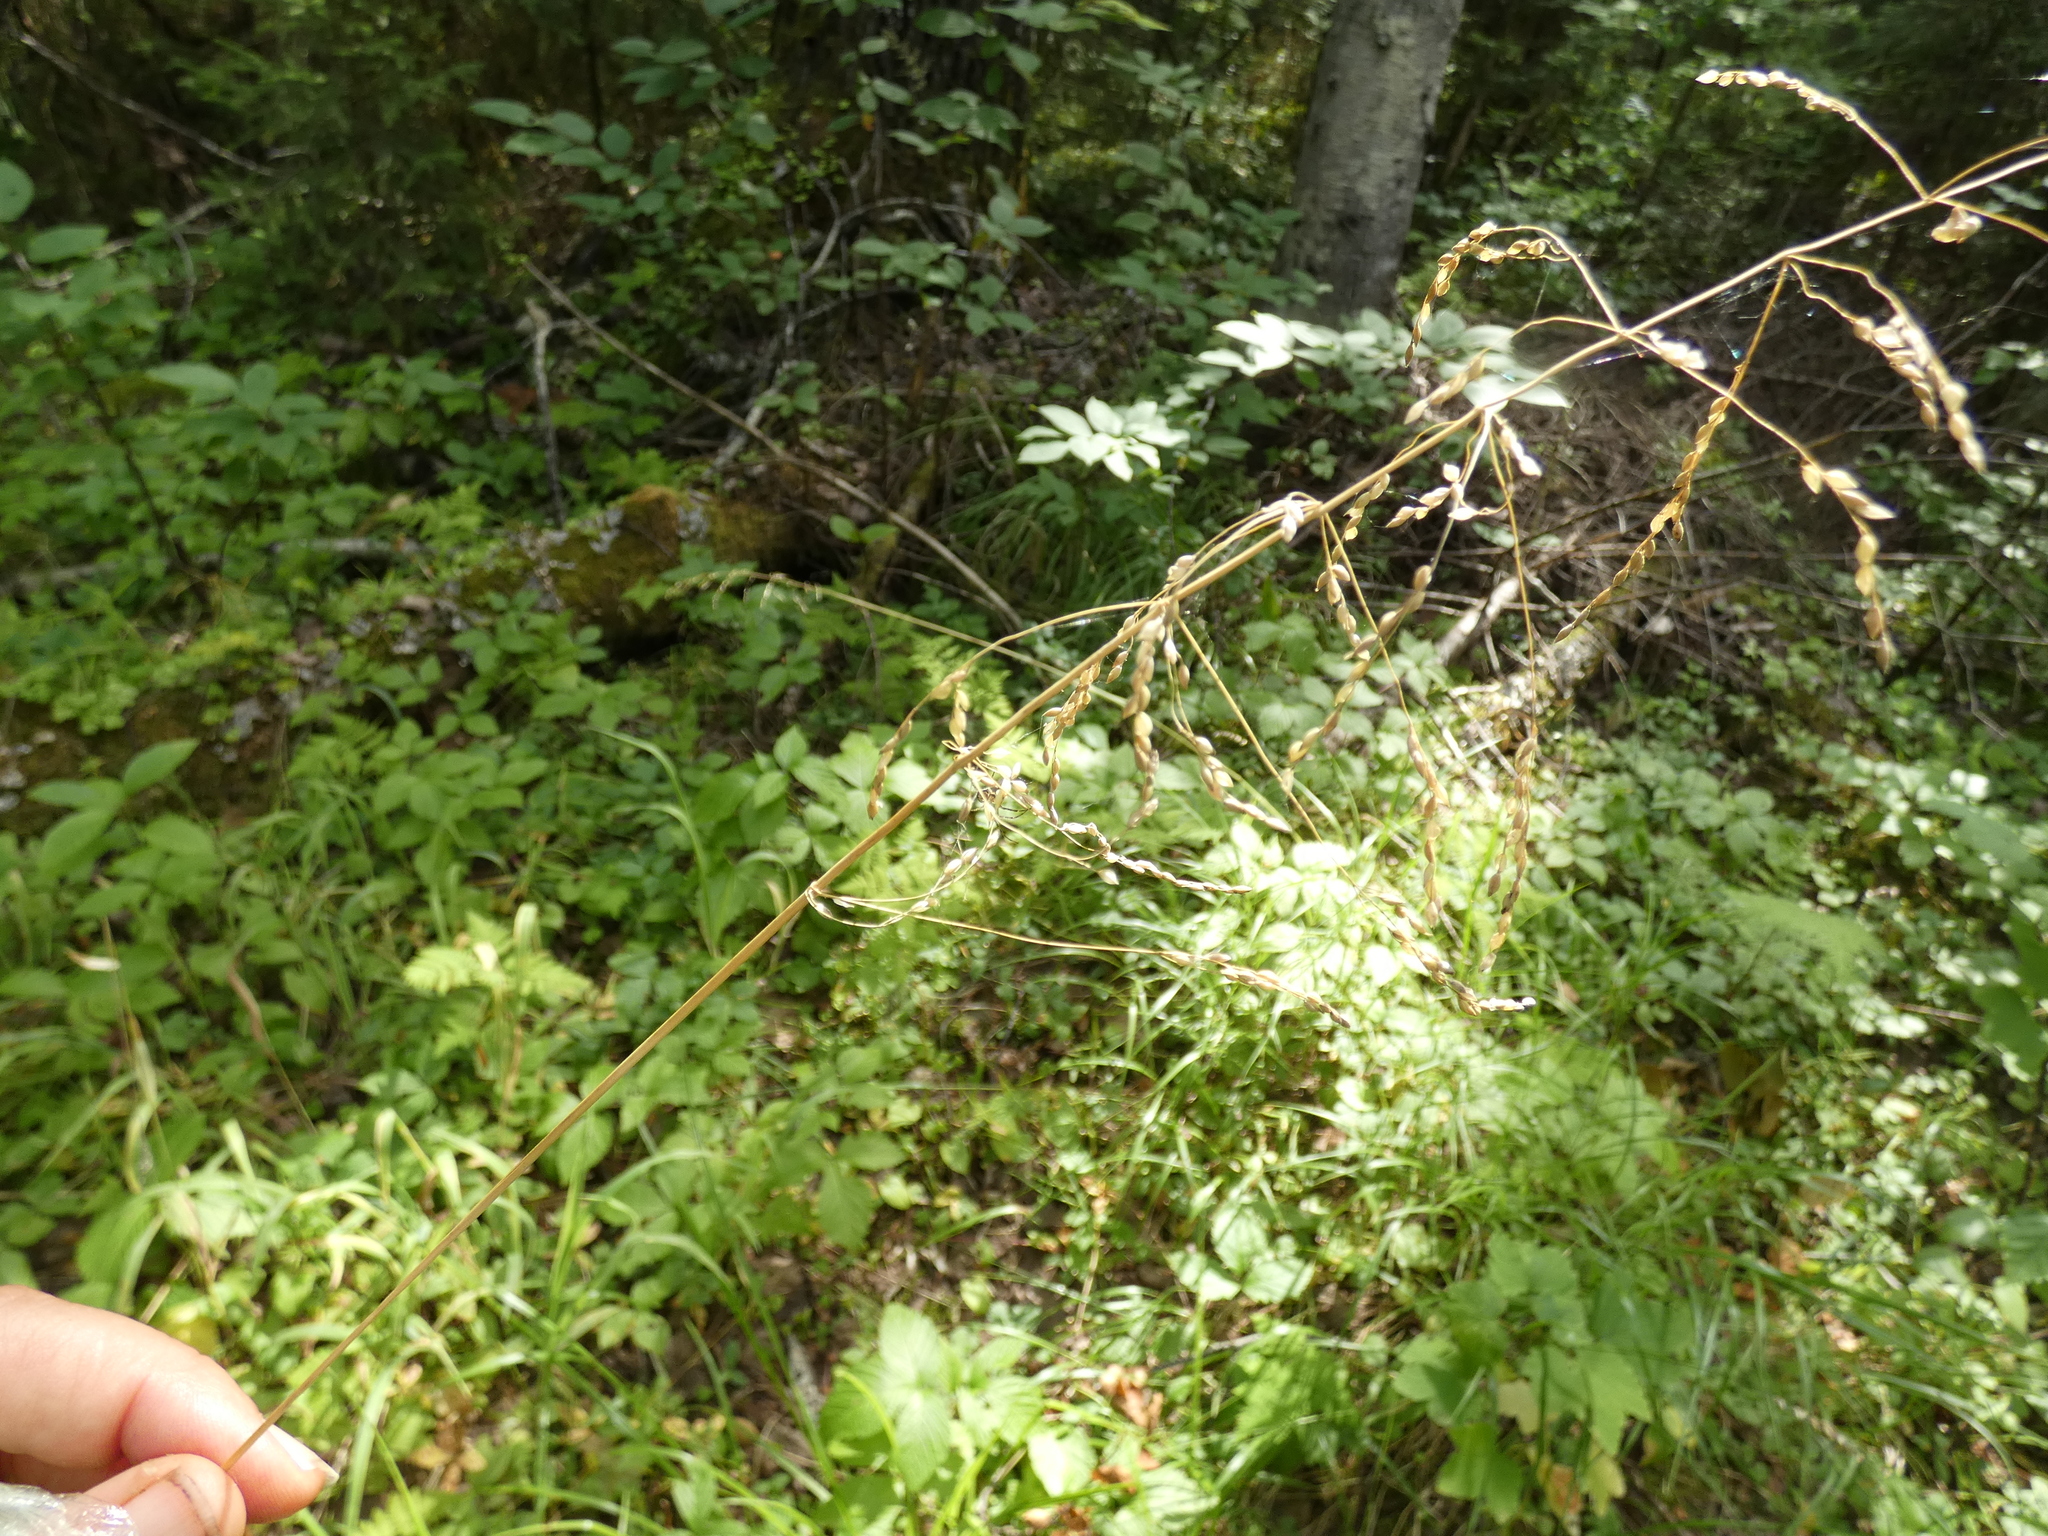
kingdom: Plantae
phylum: Tracheophyta
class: Liliopsida
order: Poales
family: Poaceae
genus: Milium
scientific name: Milium effusum
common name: Wood millet
